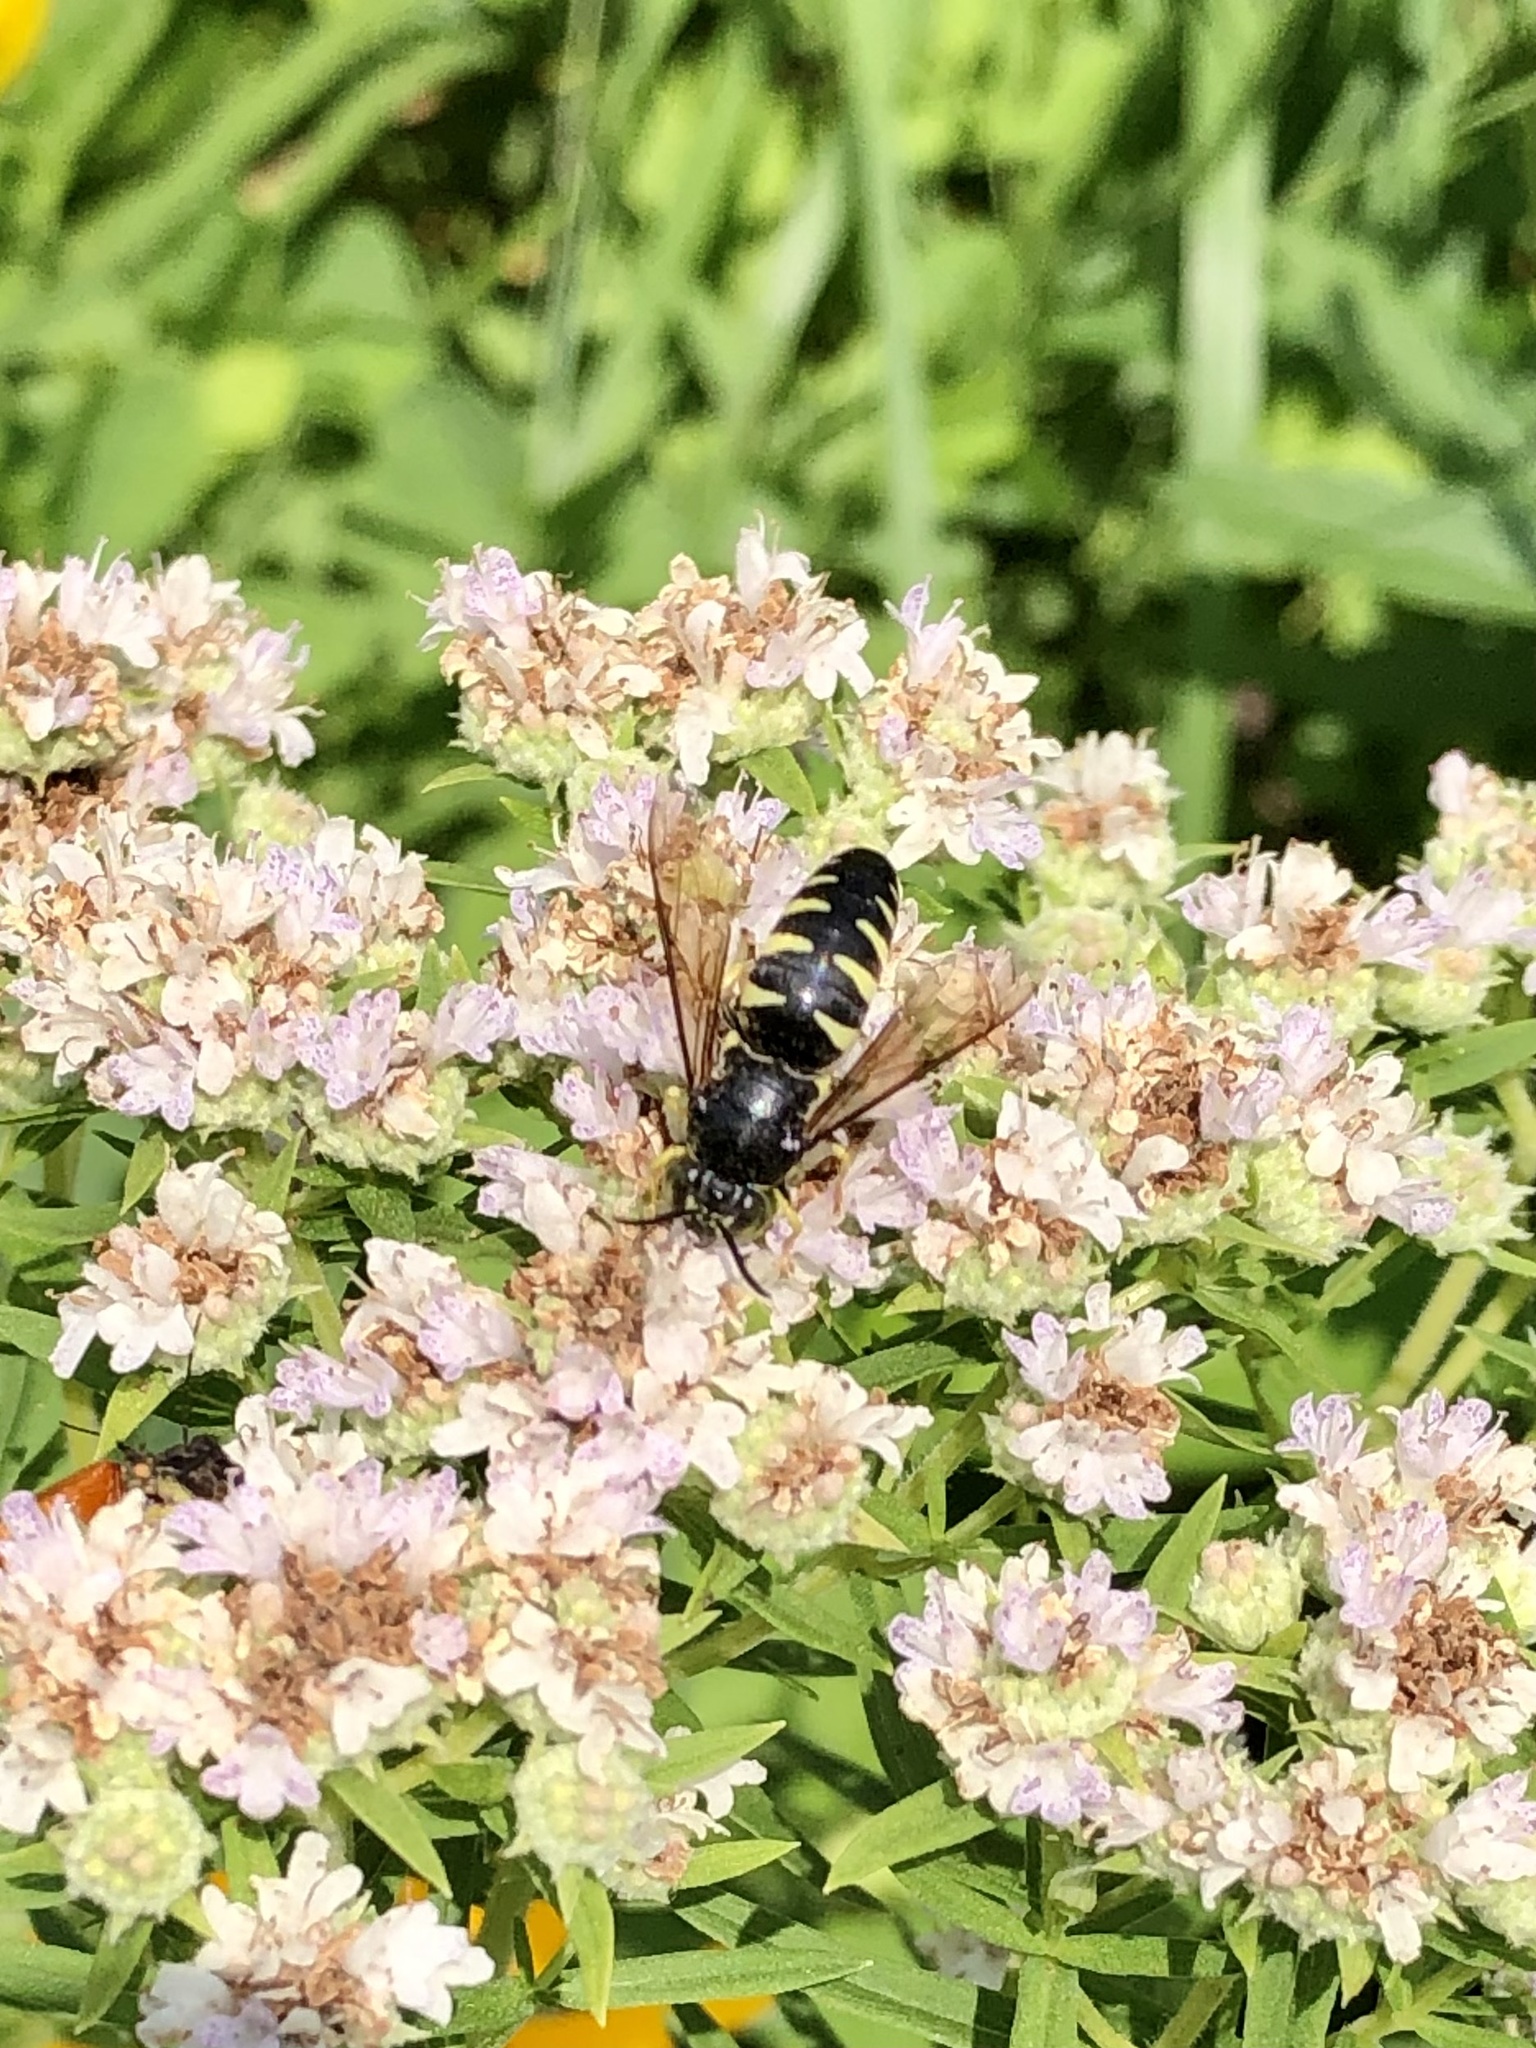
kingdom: Animalia
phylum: Arthropoda
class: Insecta
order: Hymenoptera
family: Crabronidae
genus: Bicyrtes
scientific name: Bicyrtes quadrifasciatus
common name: Four-banded stink bug hunter wasp
